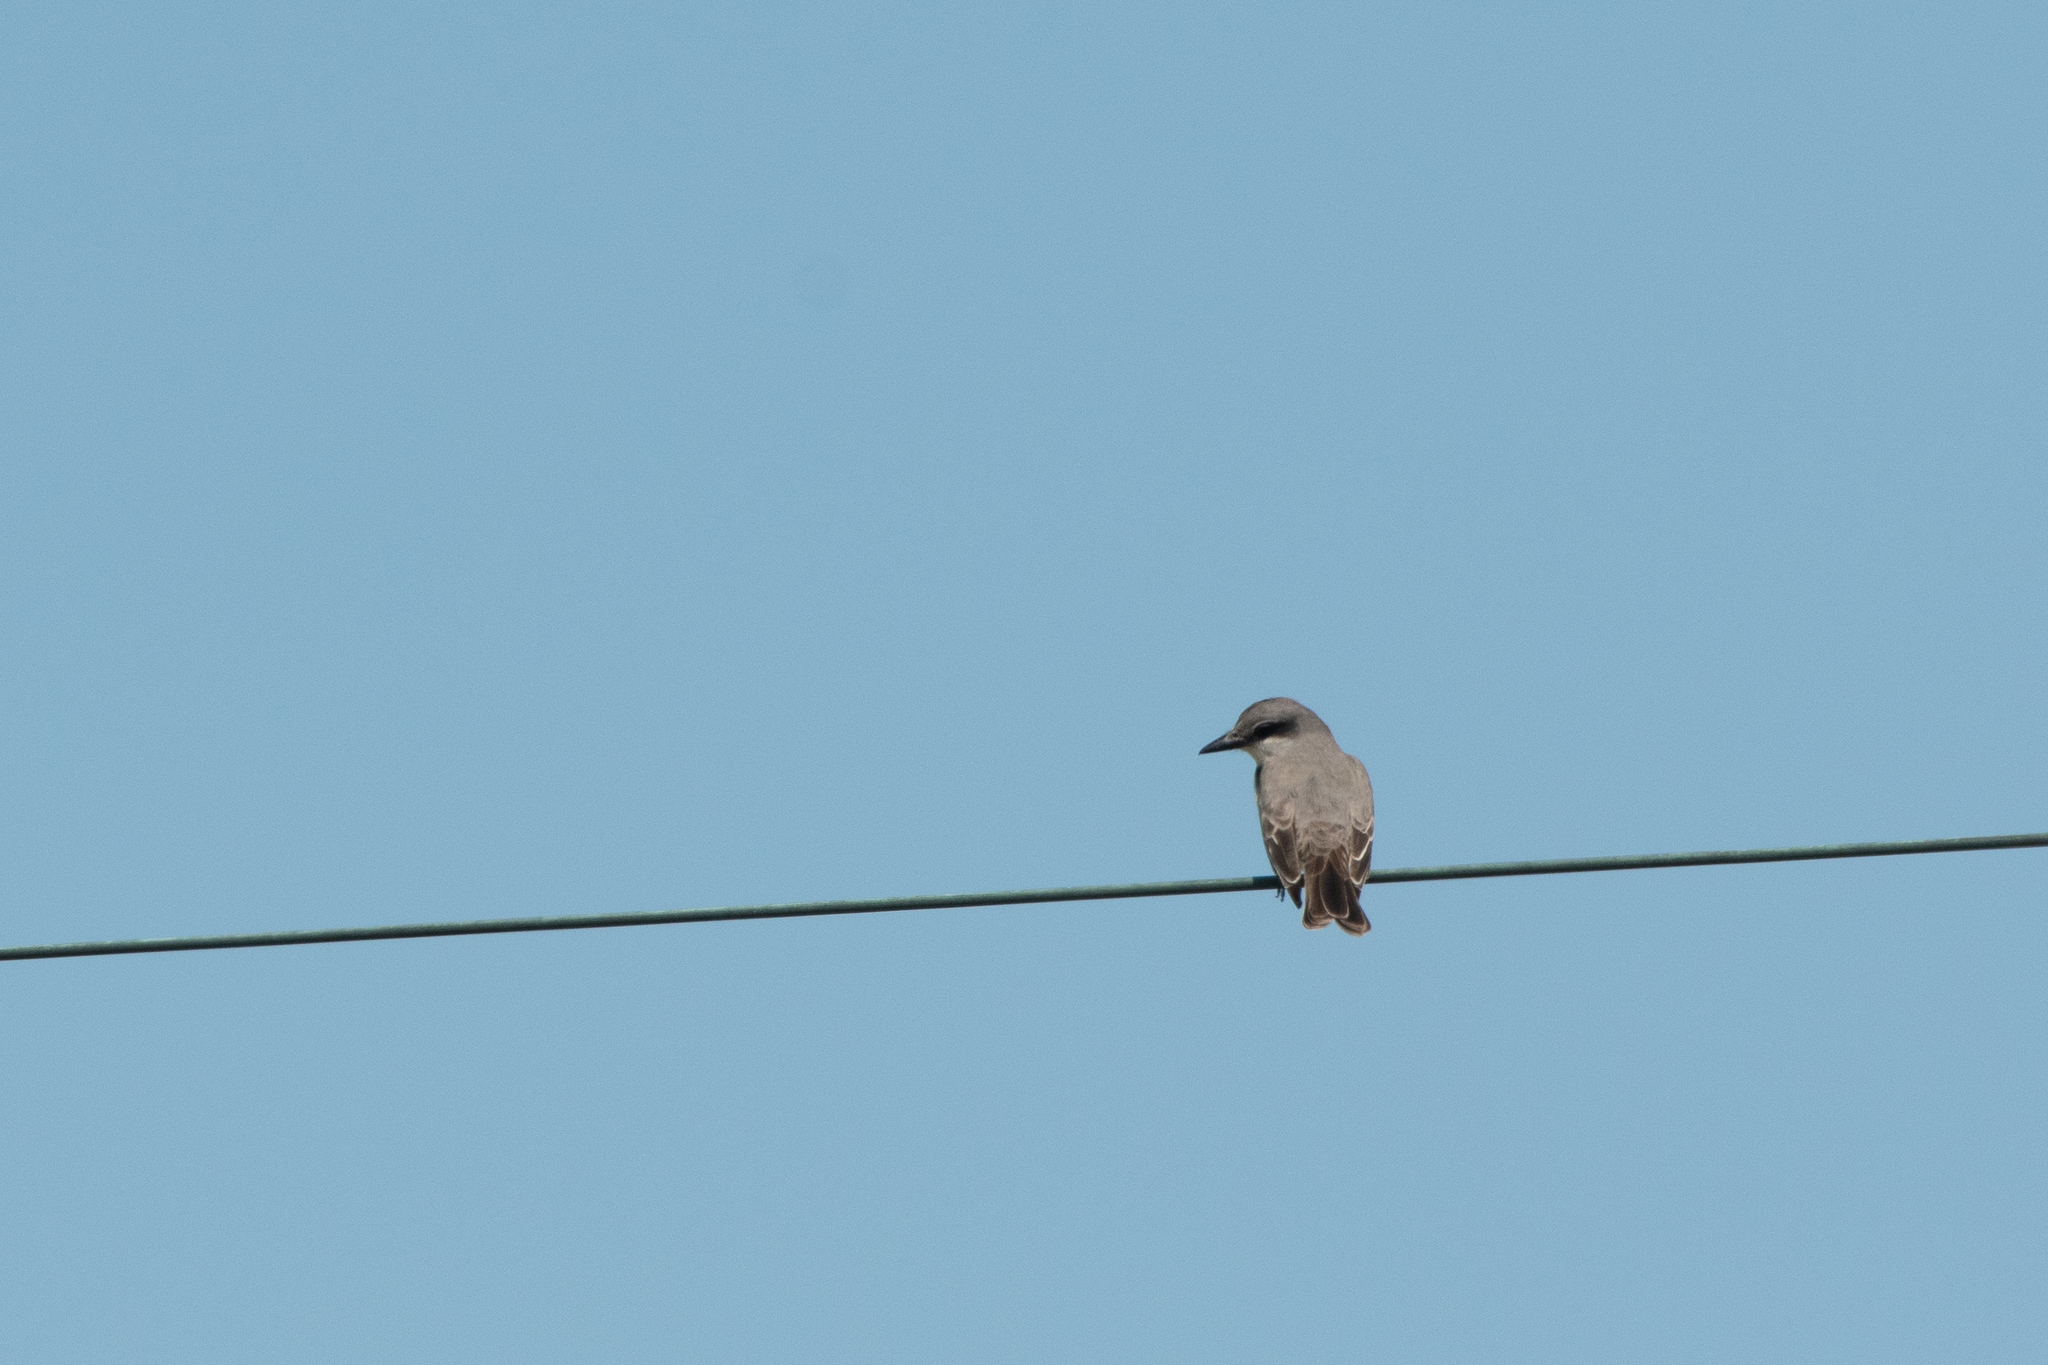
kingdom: Animalia
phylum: Chordata
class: Aves
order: Passeriformes
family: Tyrannidae
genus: Tyrannus
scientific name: Tyrannus dominicensis
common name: Gray kingbird
